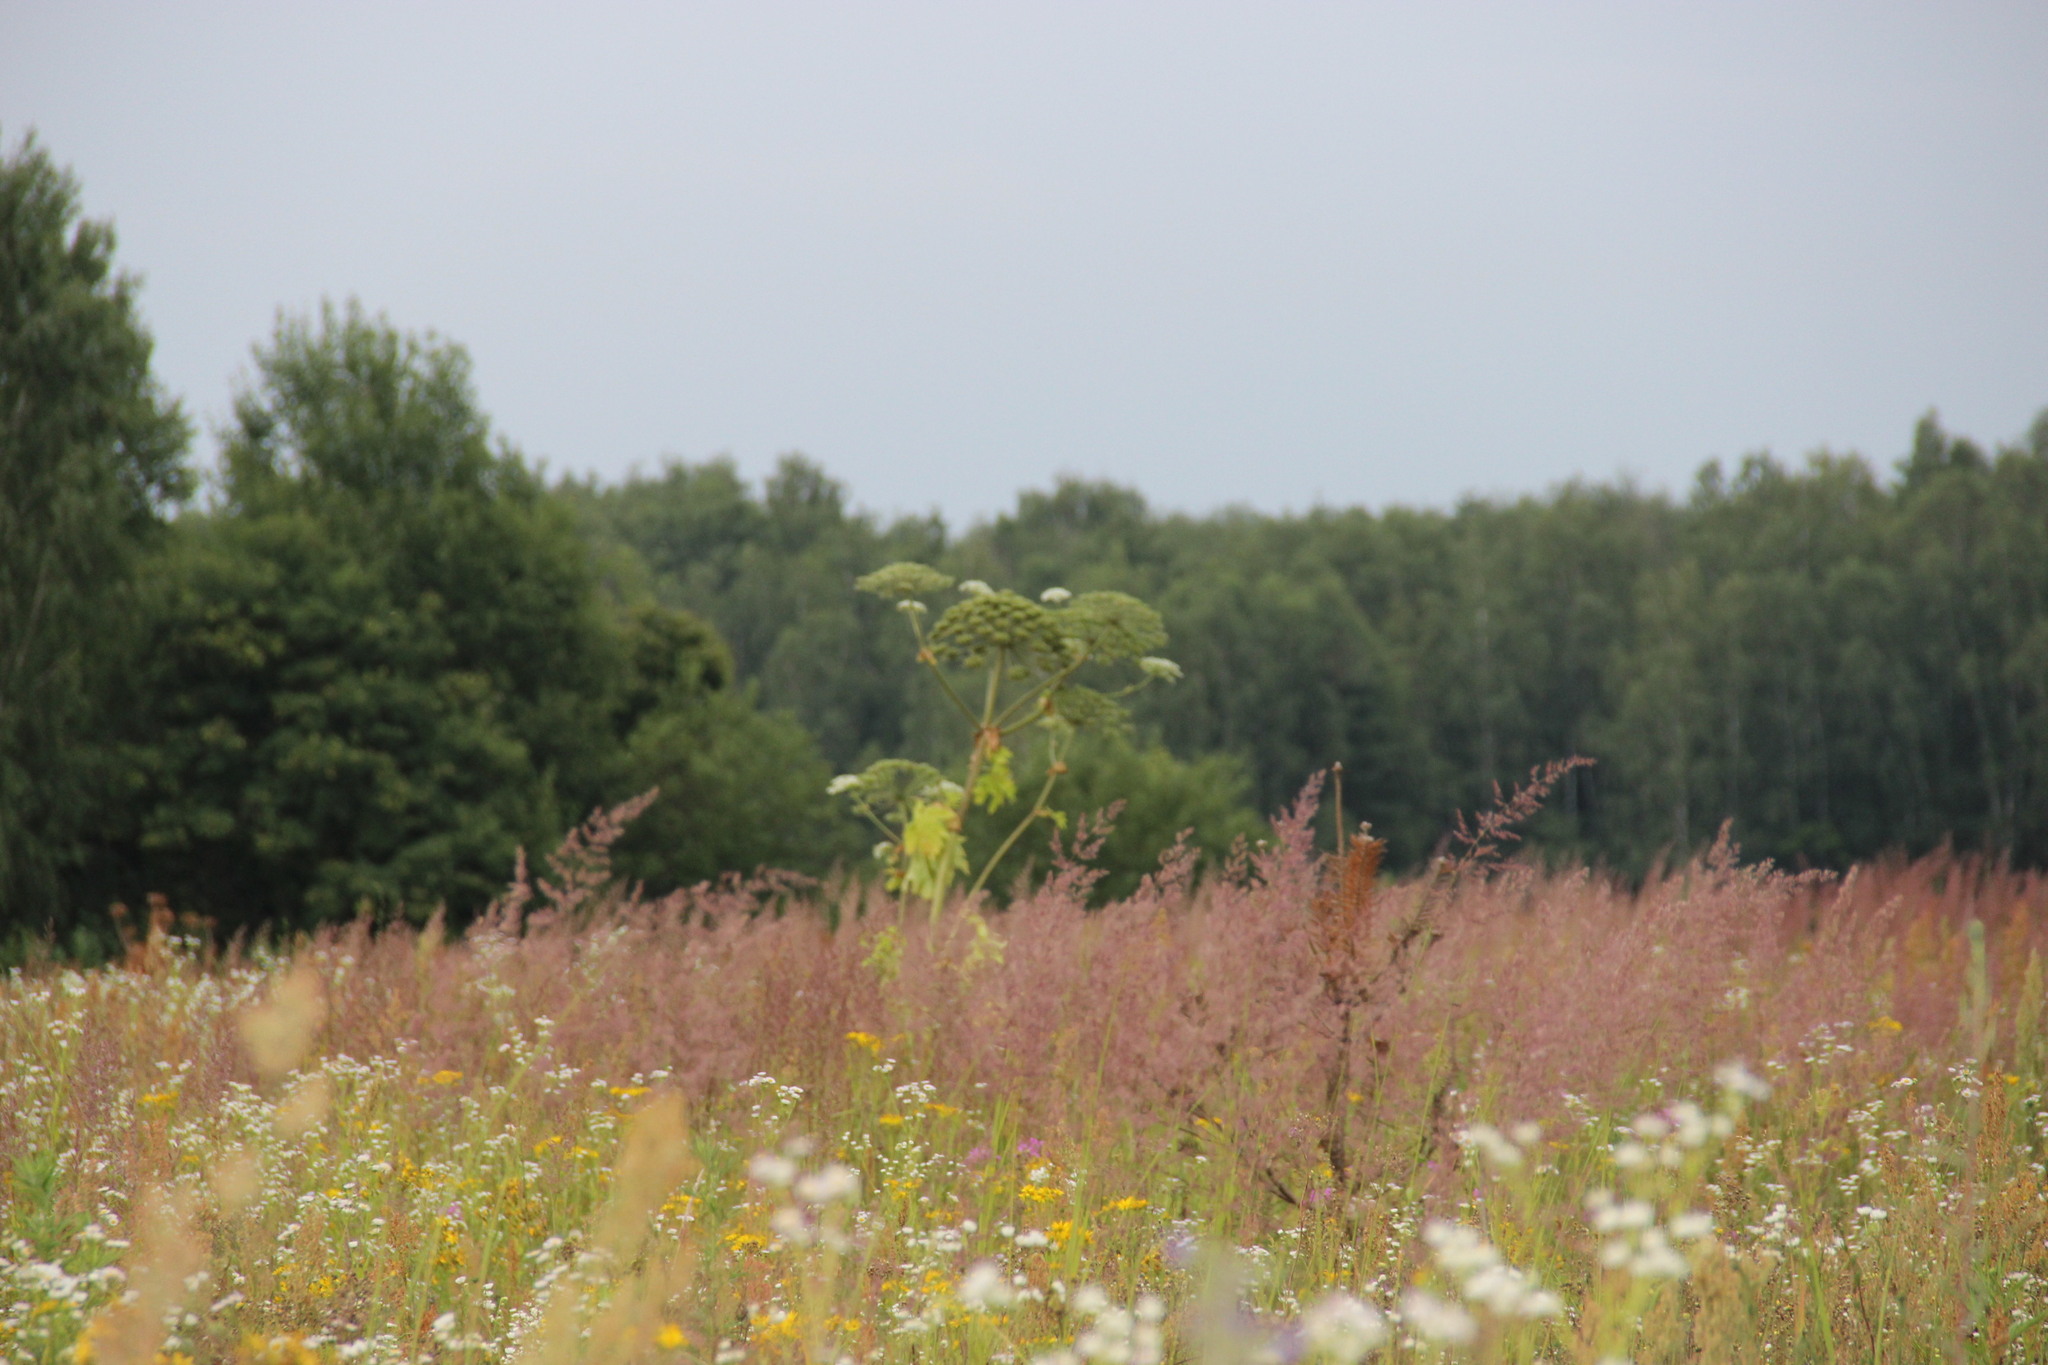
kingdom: Plantae
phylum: Tracheophyta
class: Magnoliopsida
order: Apiales
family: Apiaceae
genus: Heracleum
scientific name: Heracleum sosnowskyi
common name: Sosnowsky's hogweed
